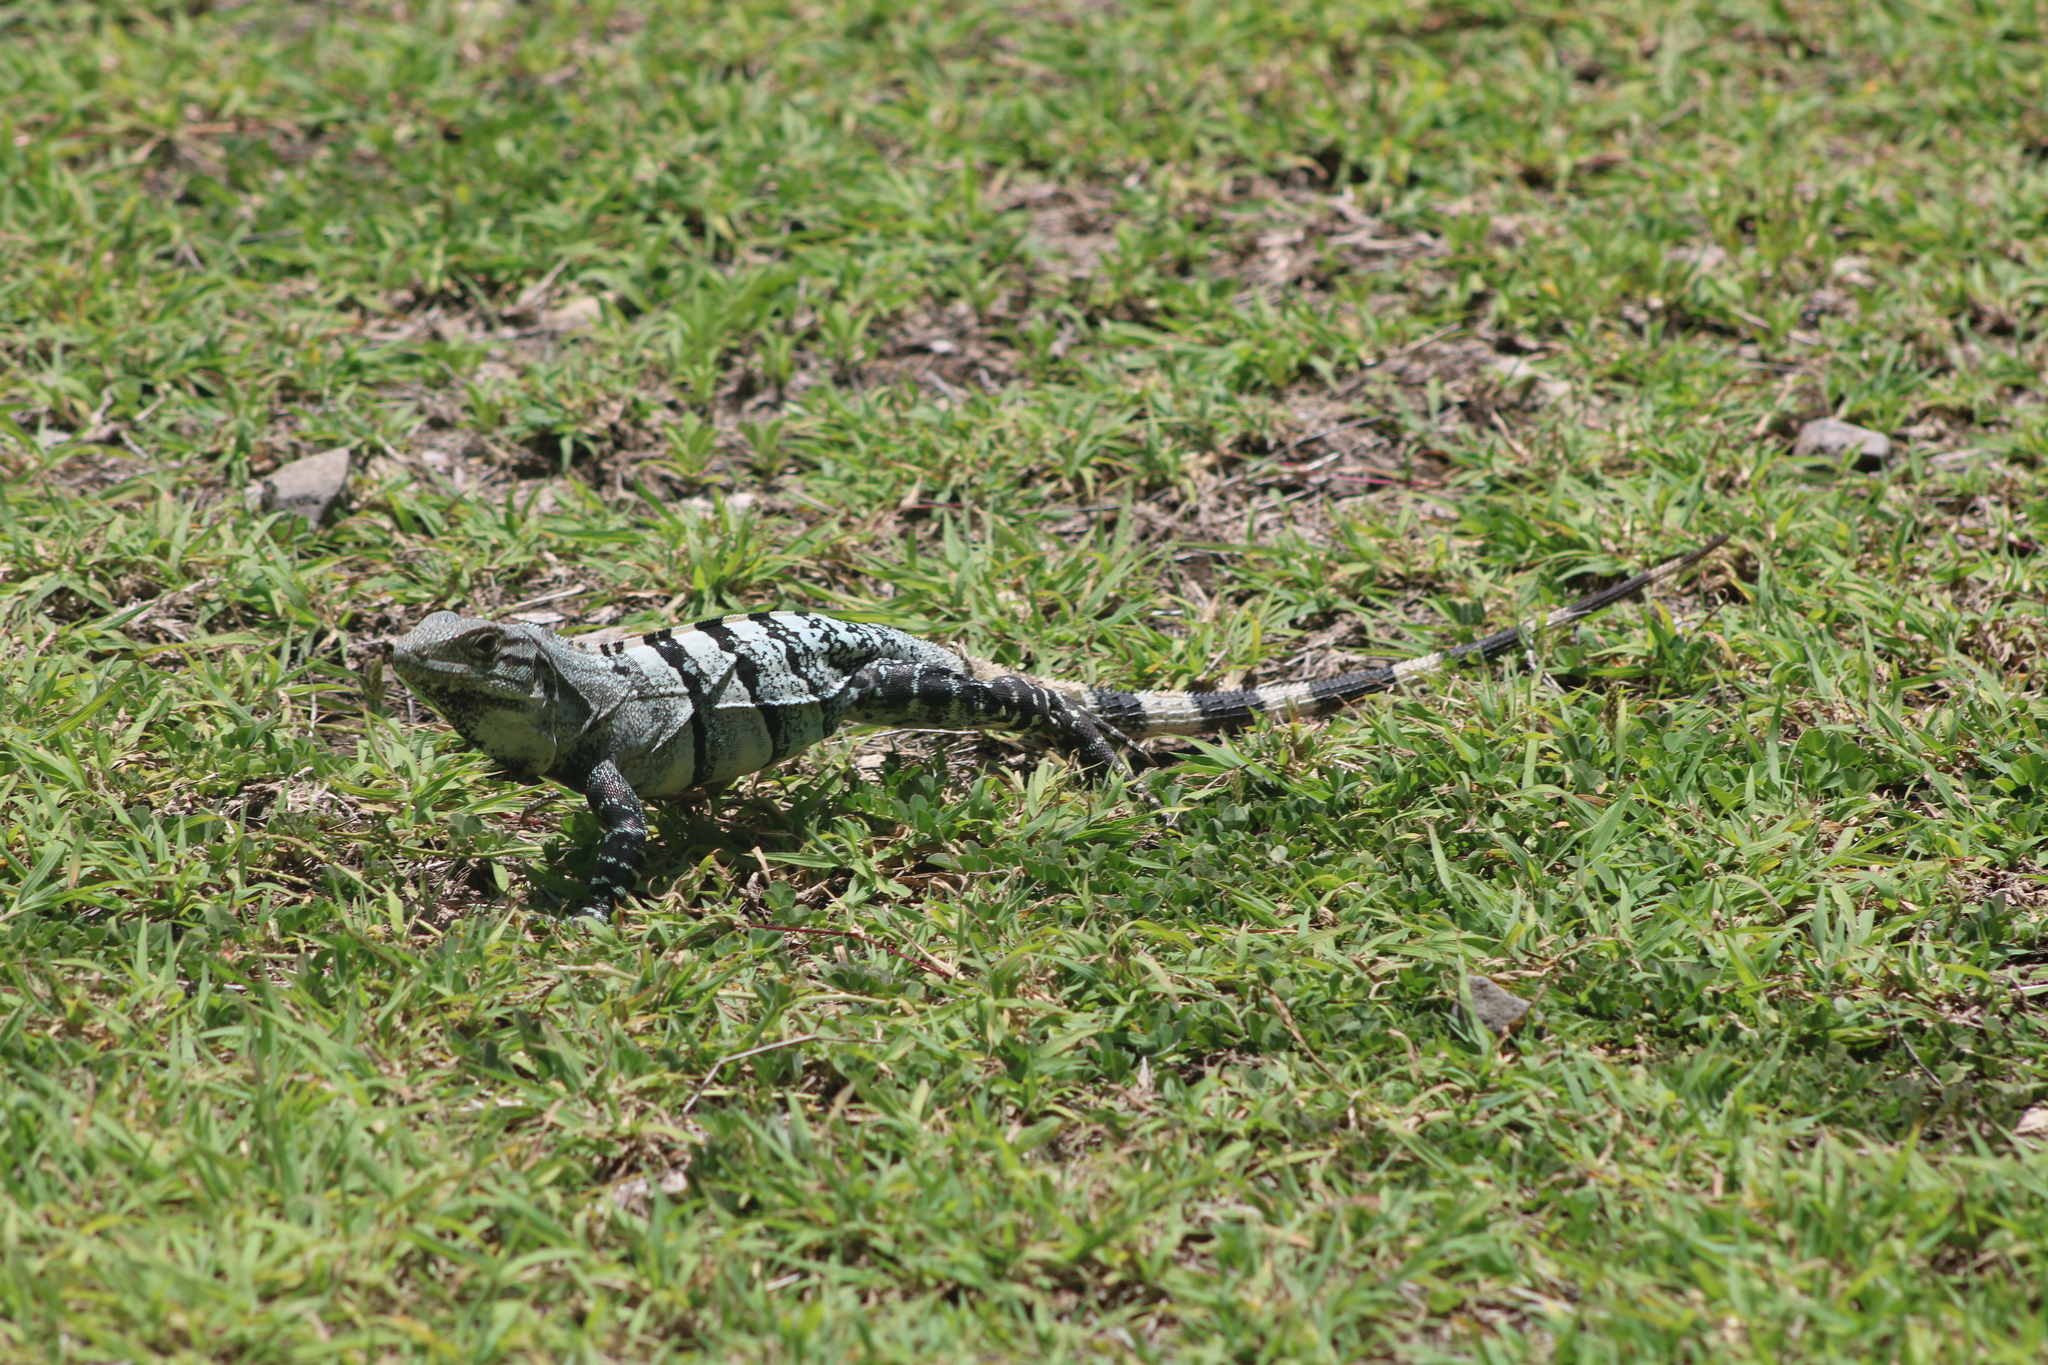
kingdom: Animalia
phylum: Chordata
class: Squamata
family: Iguanidae
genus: Ctenosaura
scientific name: Ctenosaura similis
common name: Black spiny-tailed iguana
